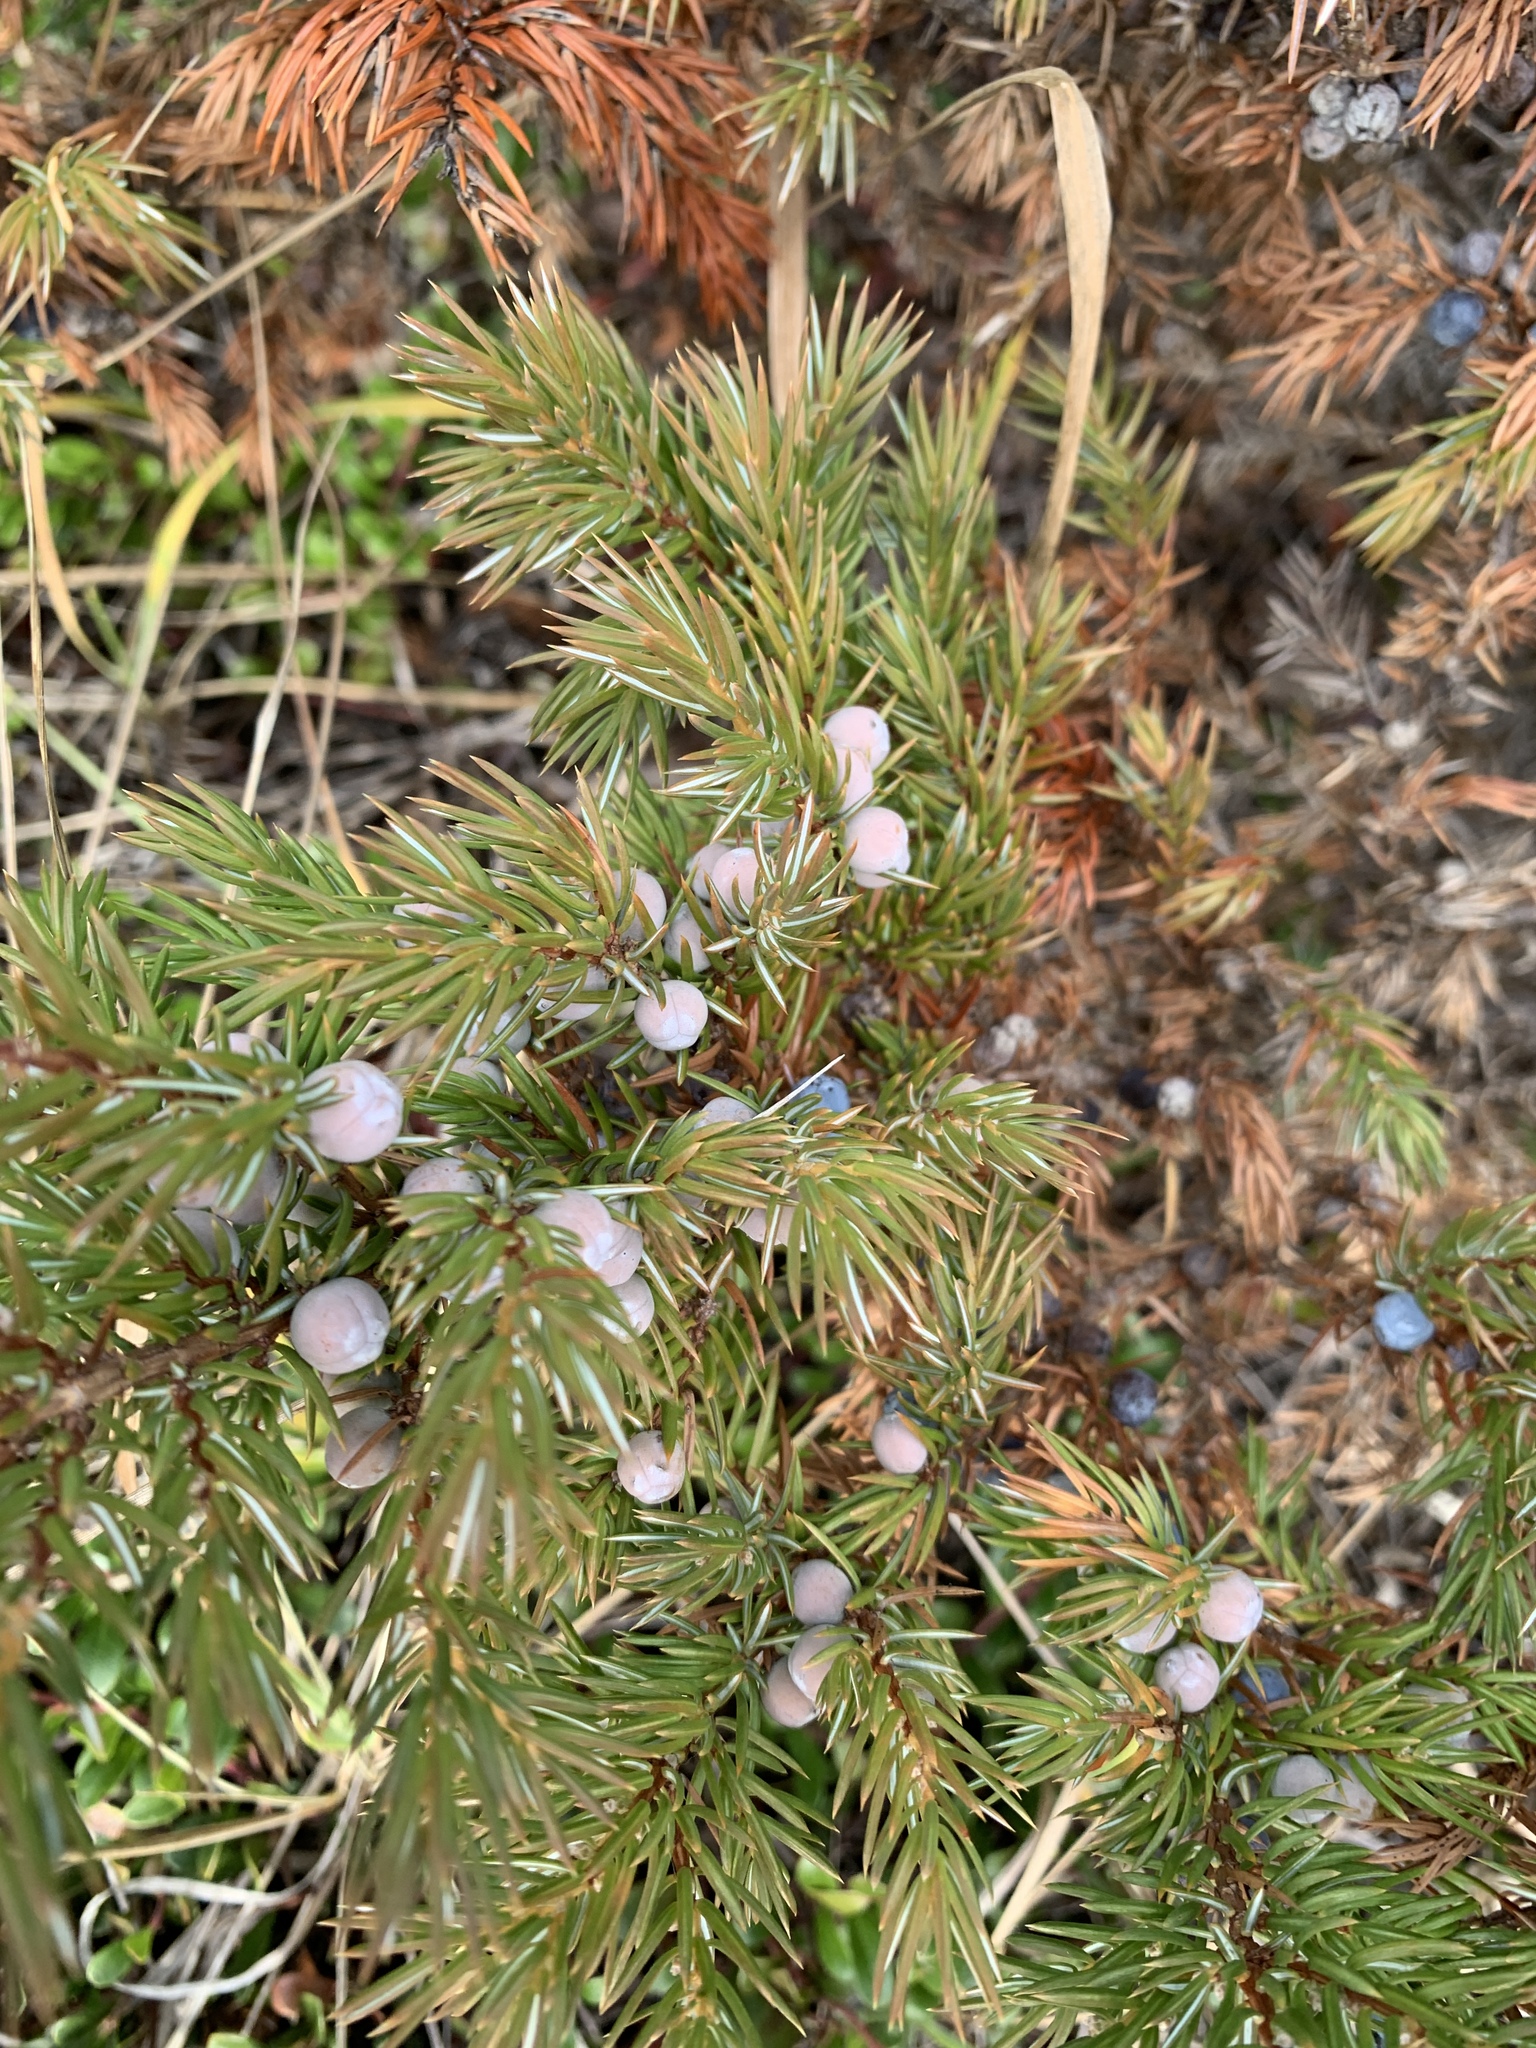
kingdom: Plantae
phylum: Tracheophyta
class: Pinopsida
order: Pinales
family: Cupressaceae
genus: Juniperus
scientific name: Juniperus communis
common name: Common juniper
